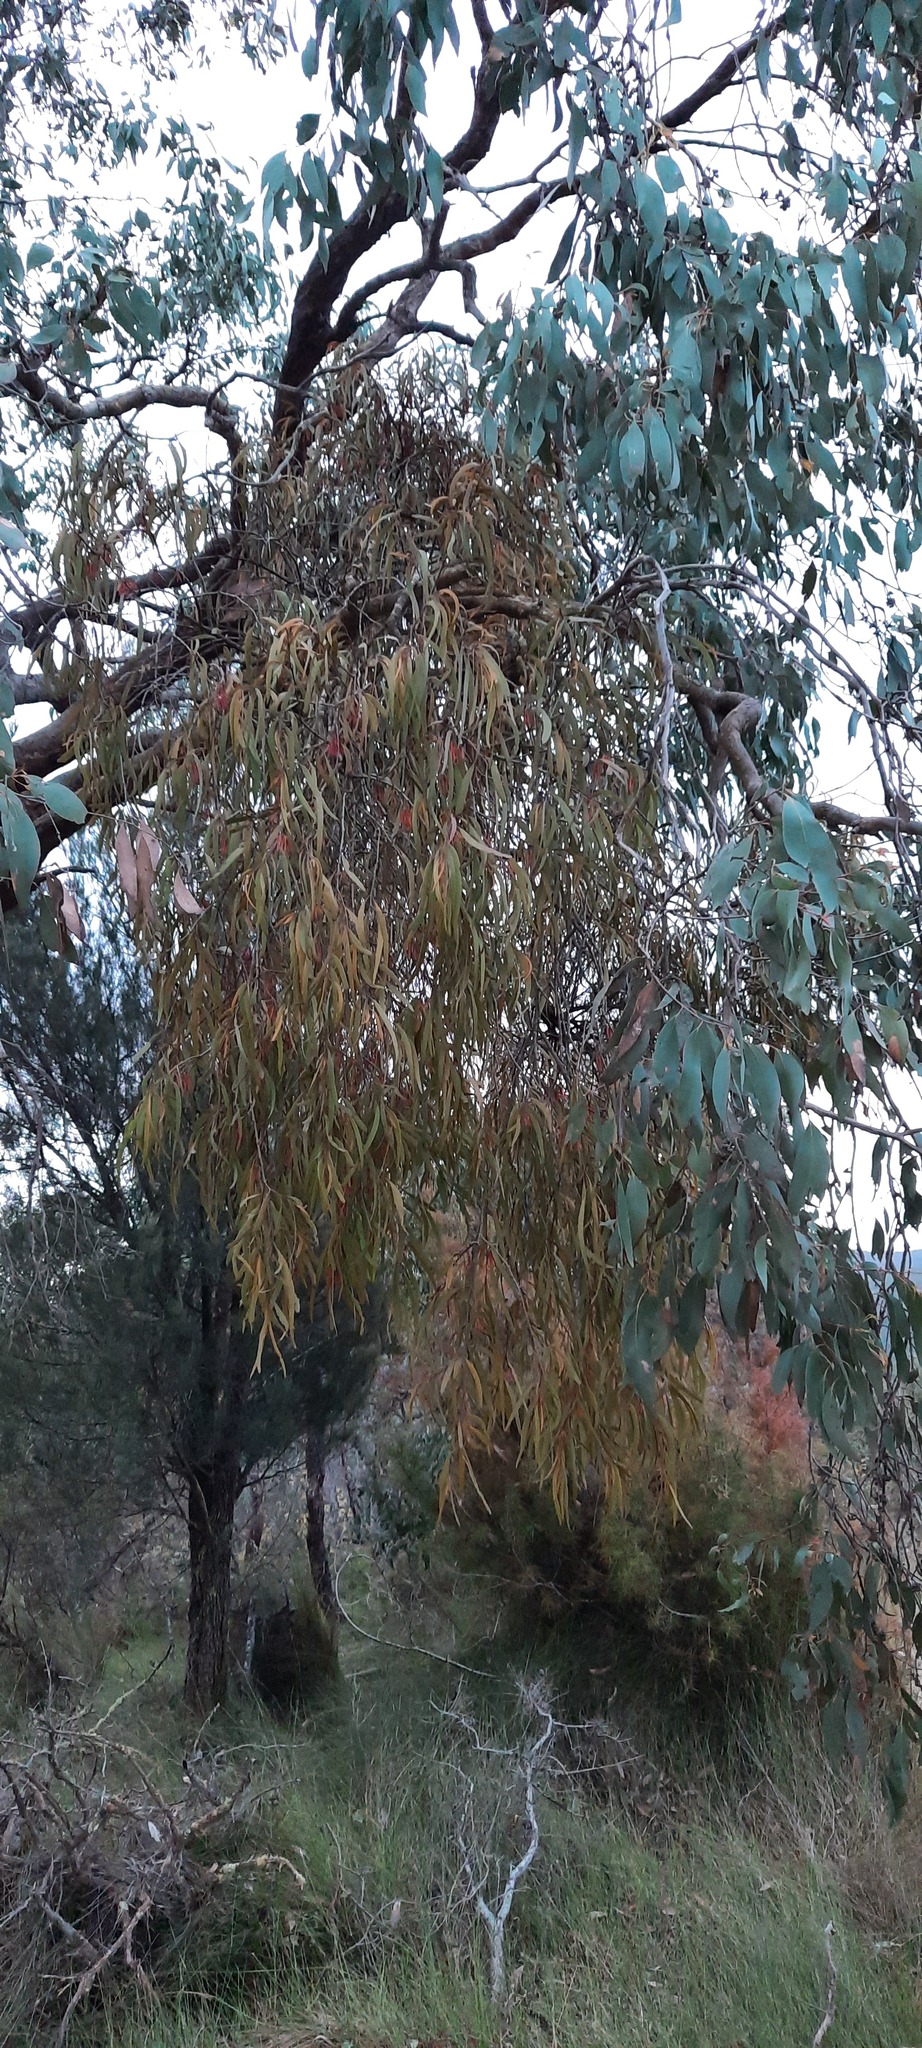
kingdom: Plantae
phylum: Tracheophyta
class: Magnoliopsida
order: Santalales
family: Loranthaceae
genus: Amyema
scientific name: Amyema pendula
